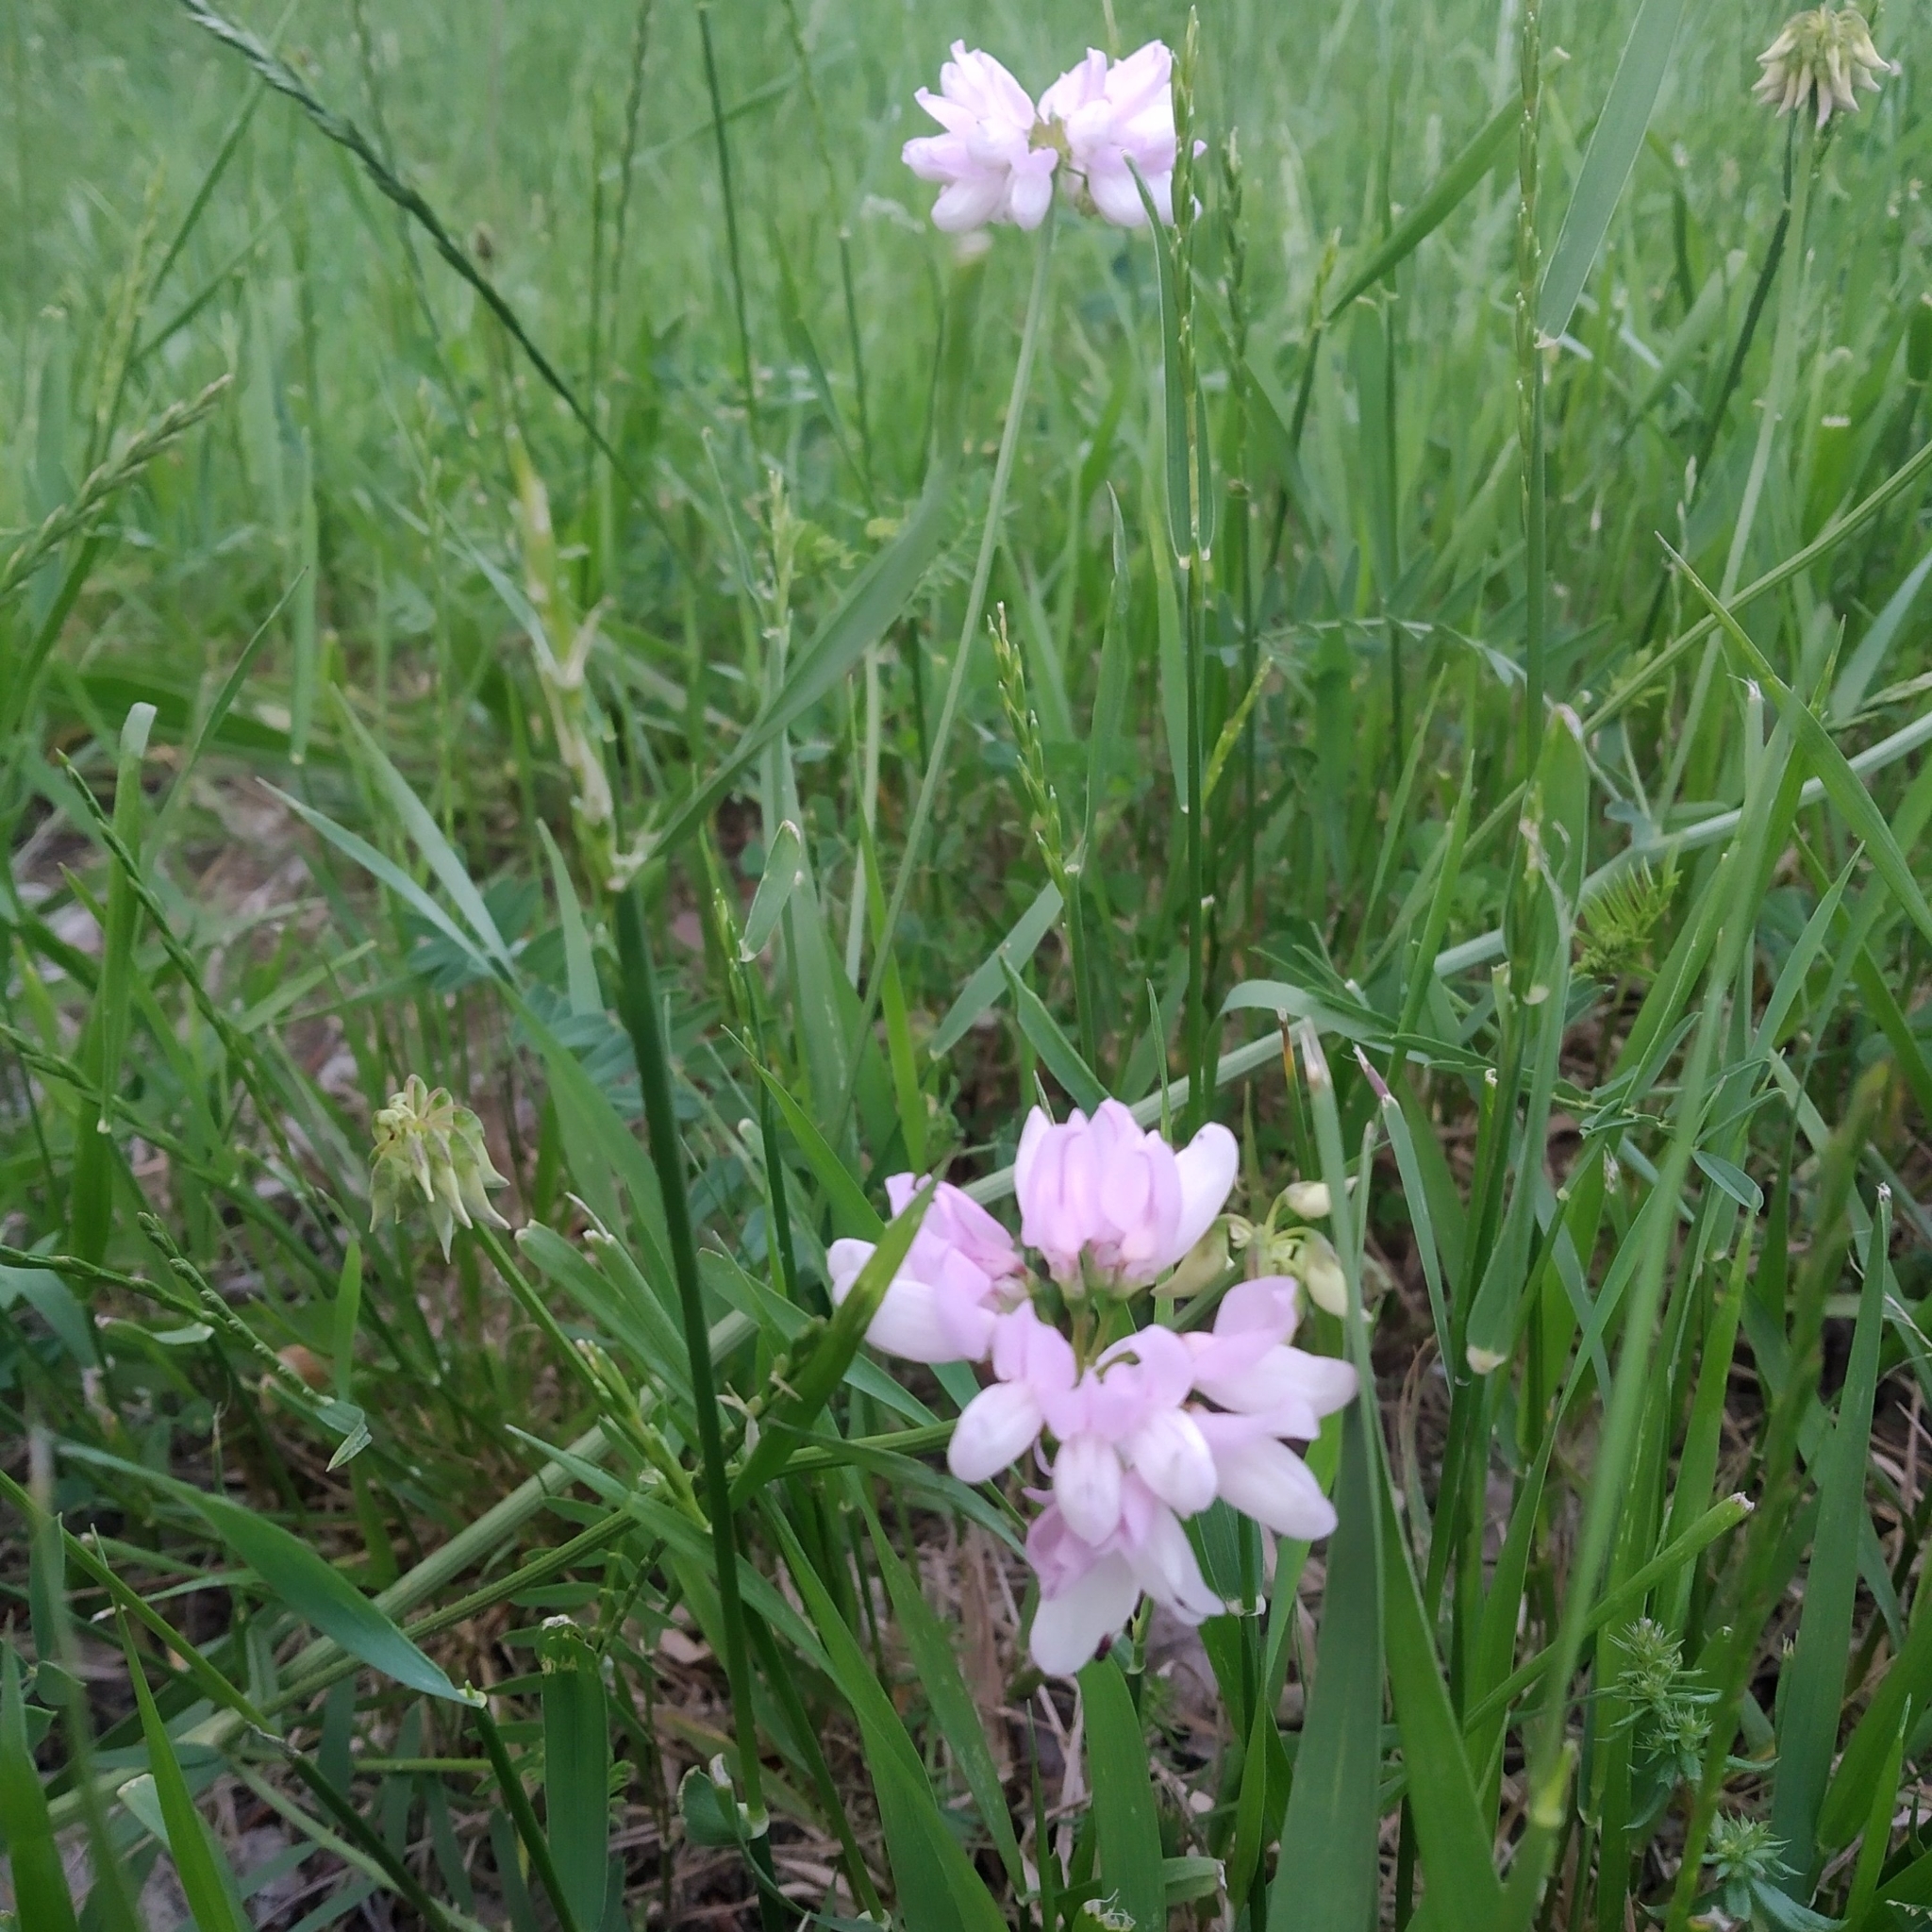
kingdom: Plantae
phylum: Tracheophyta
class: Magnoliopsida
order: Fabales
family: Fabaceae
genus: Coronilla
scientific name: Coronilla varia
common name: Crownvetch
